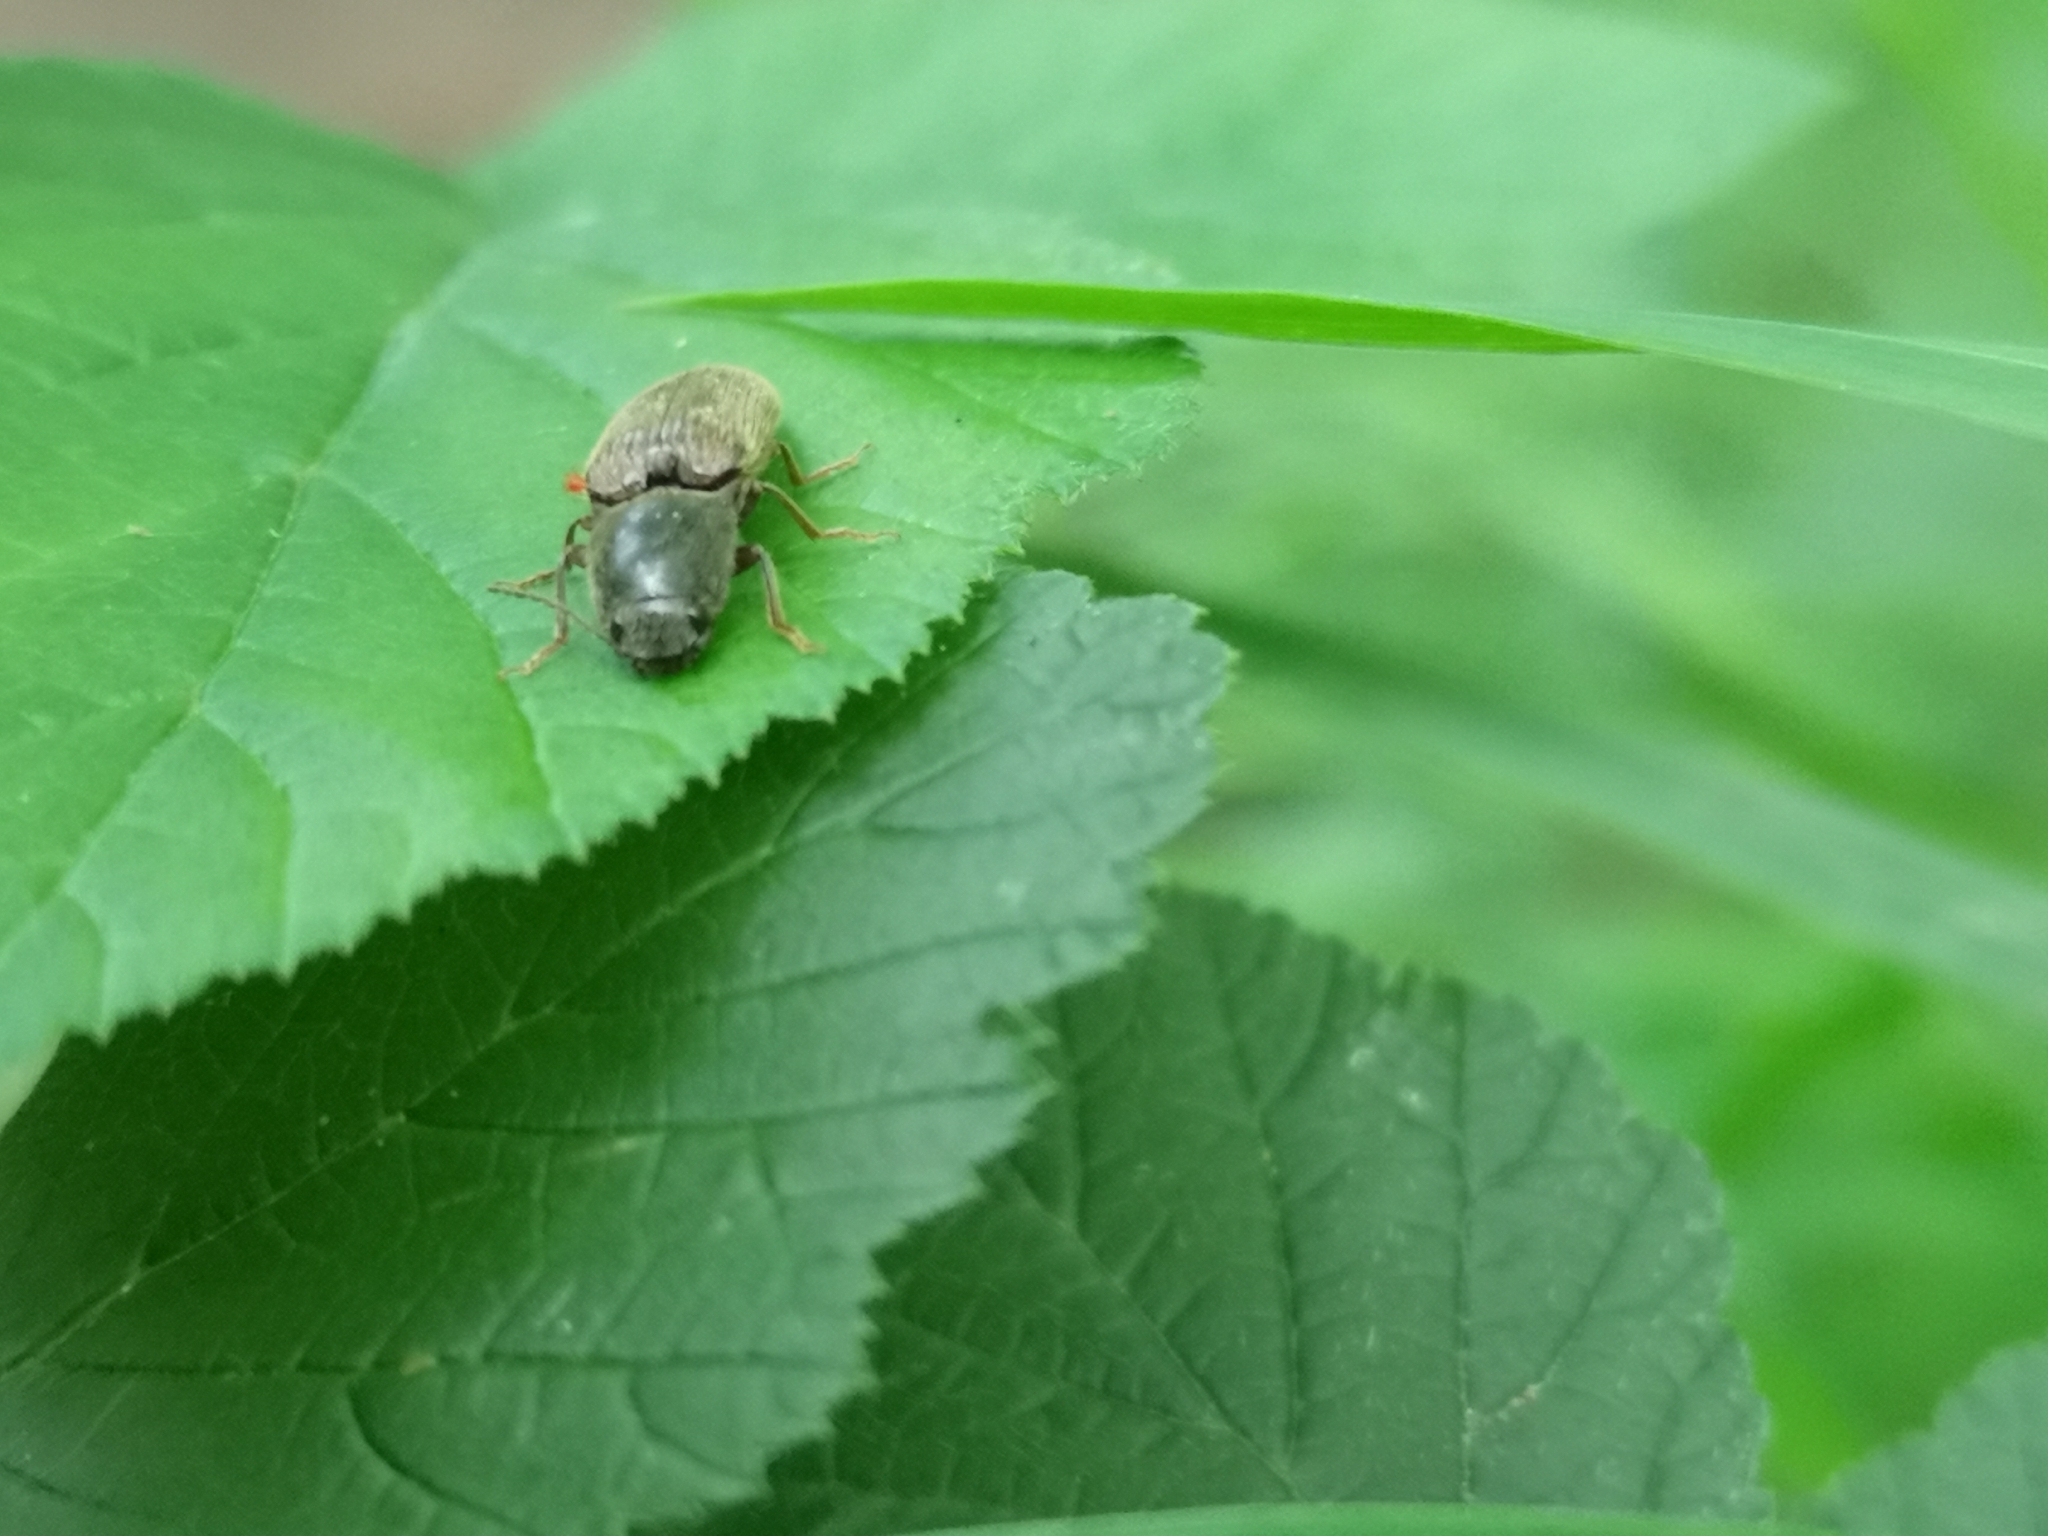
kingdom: Animalia
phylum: Arthropoda
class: Insecta
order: Coleoptera
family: Elateridae
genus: Athous
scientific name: Athous haemorrhoidalis
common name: Red-brown click beetle
